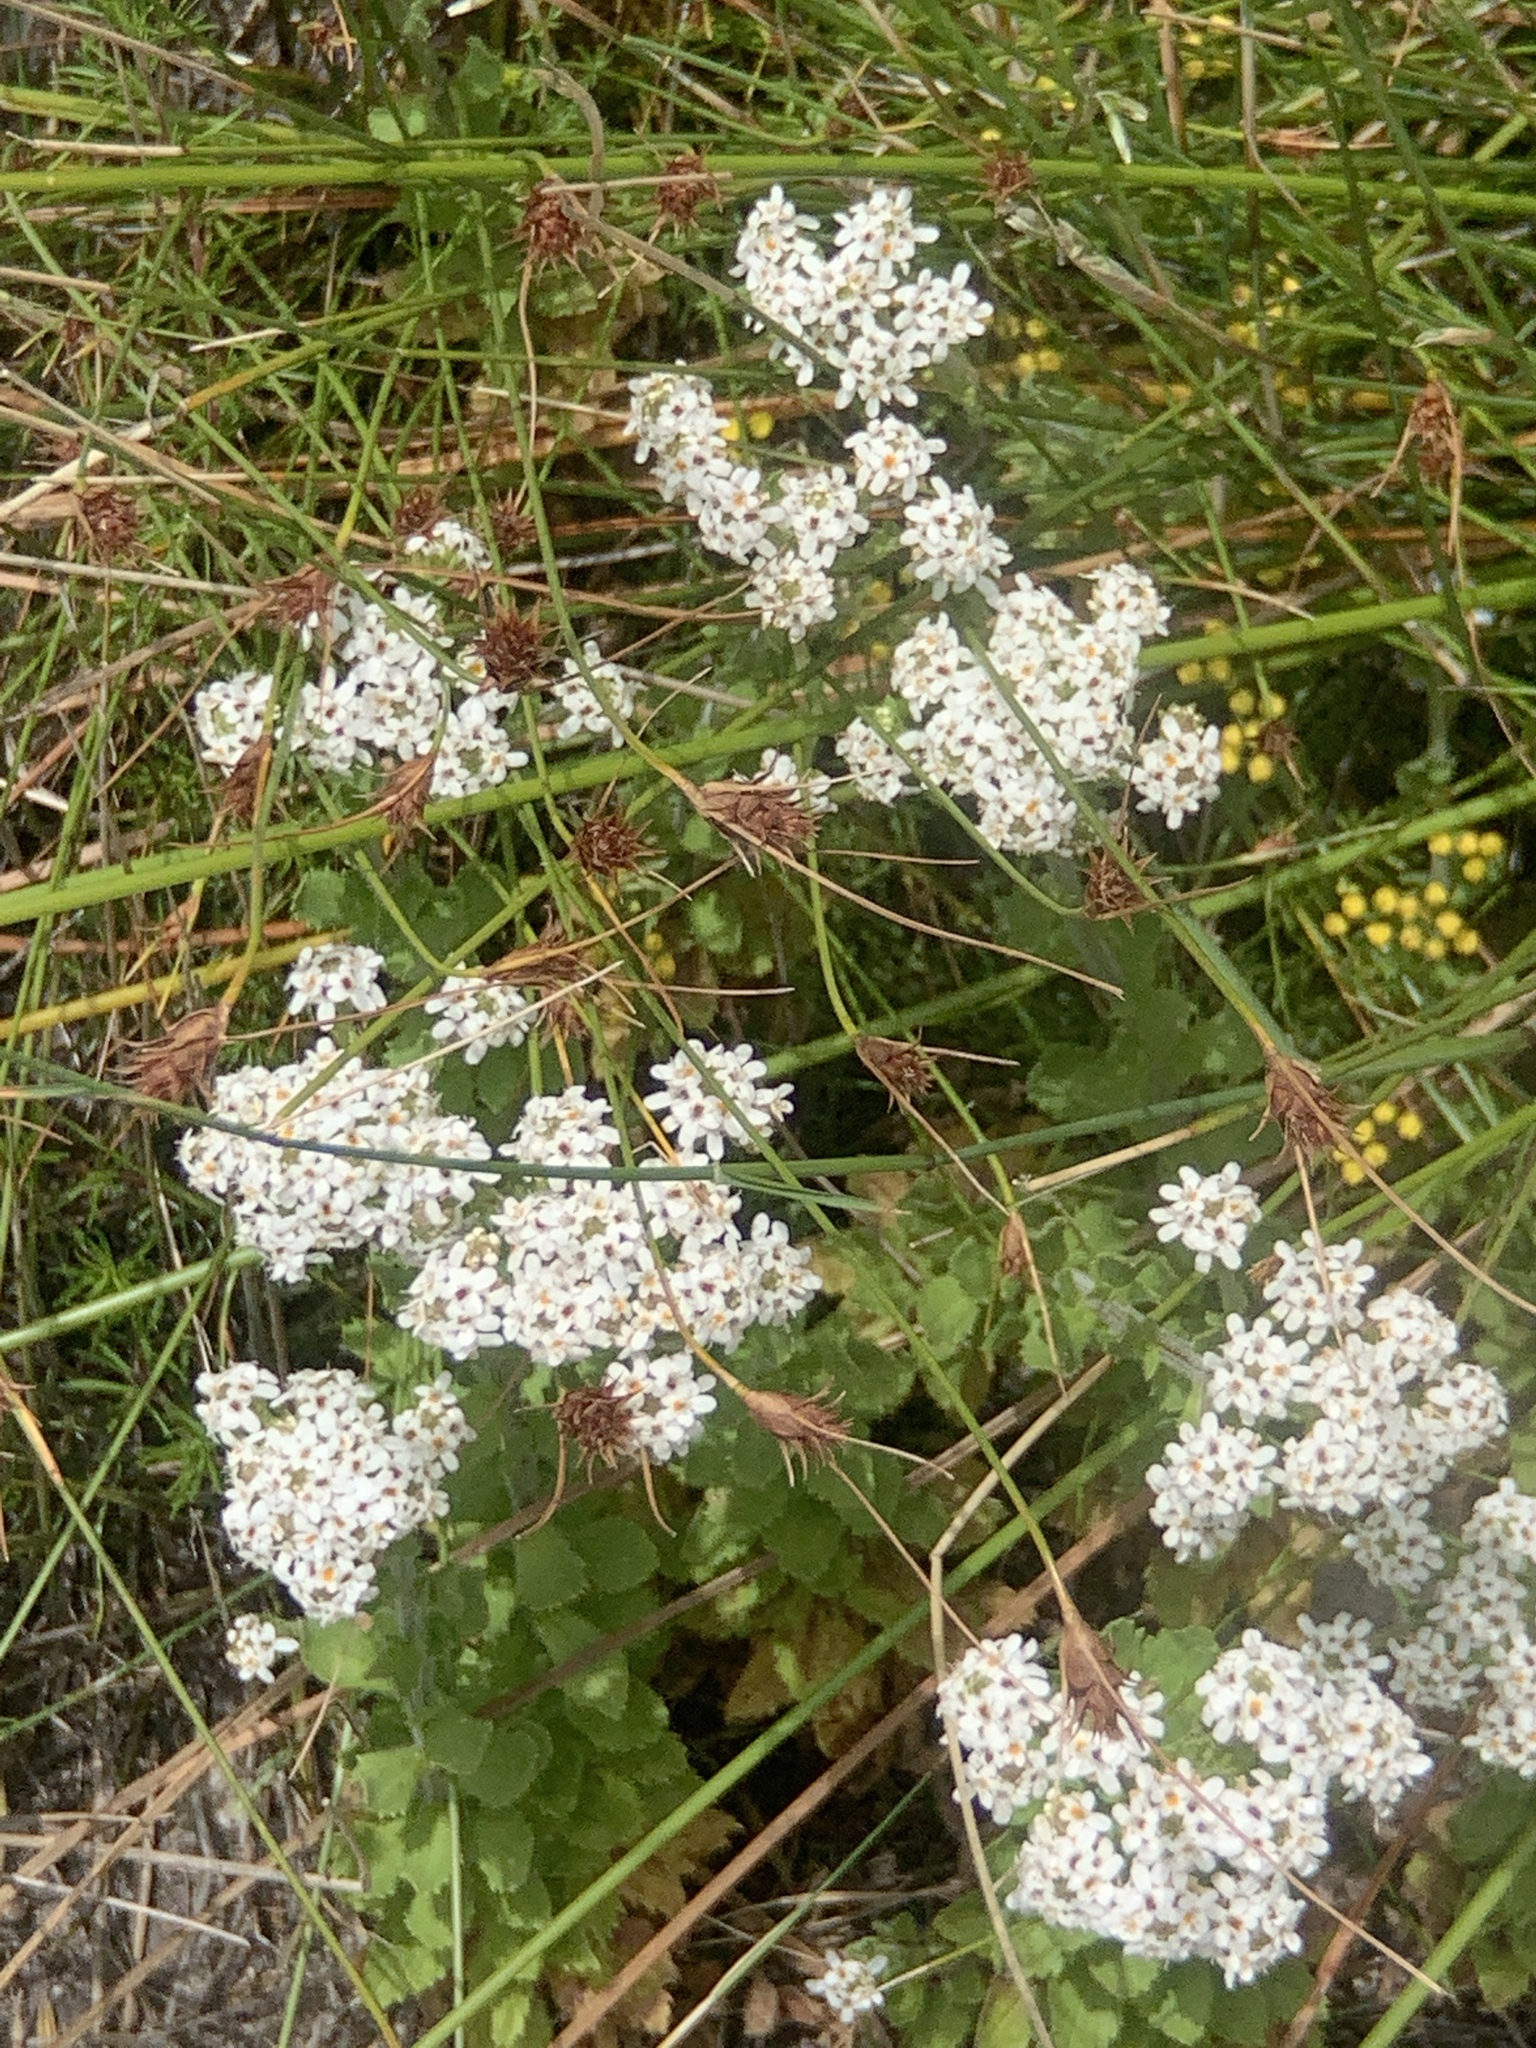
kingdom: Plantae
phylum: Tracheophyta
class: Magnoliopsida
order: Lamiales
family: Scrophulariaceae
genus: Pseudoselago
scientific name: Pseudoselago peninsulae
